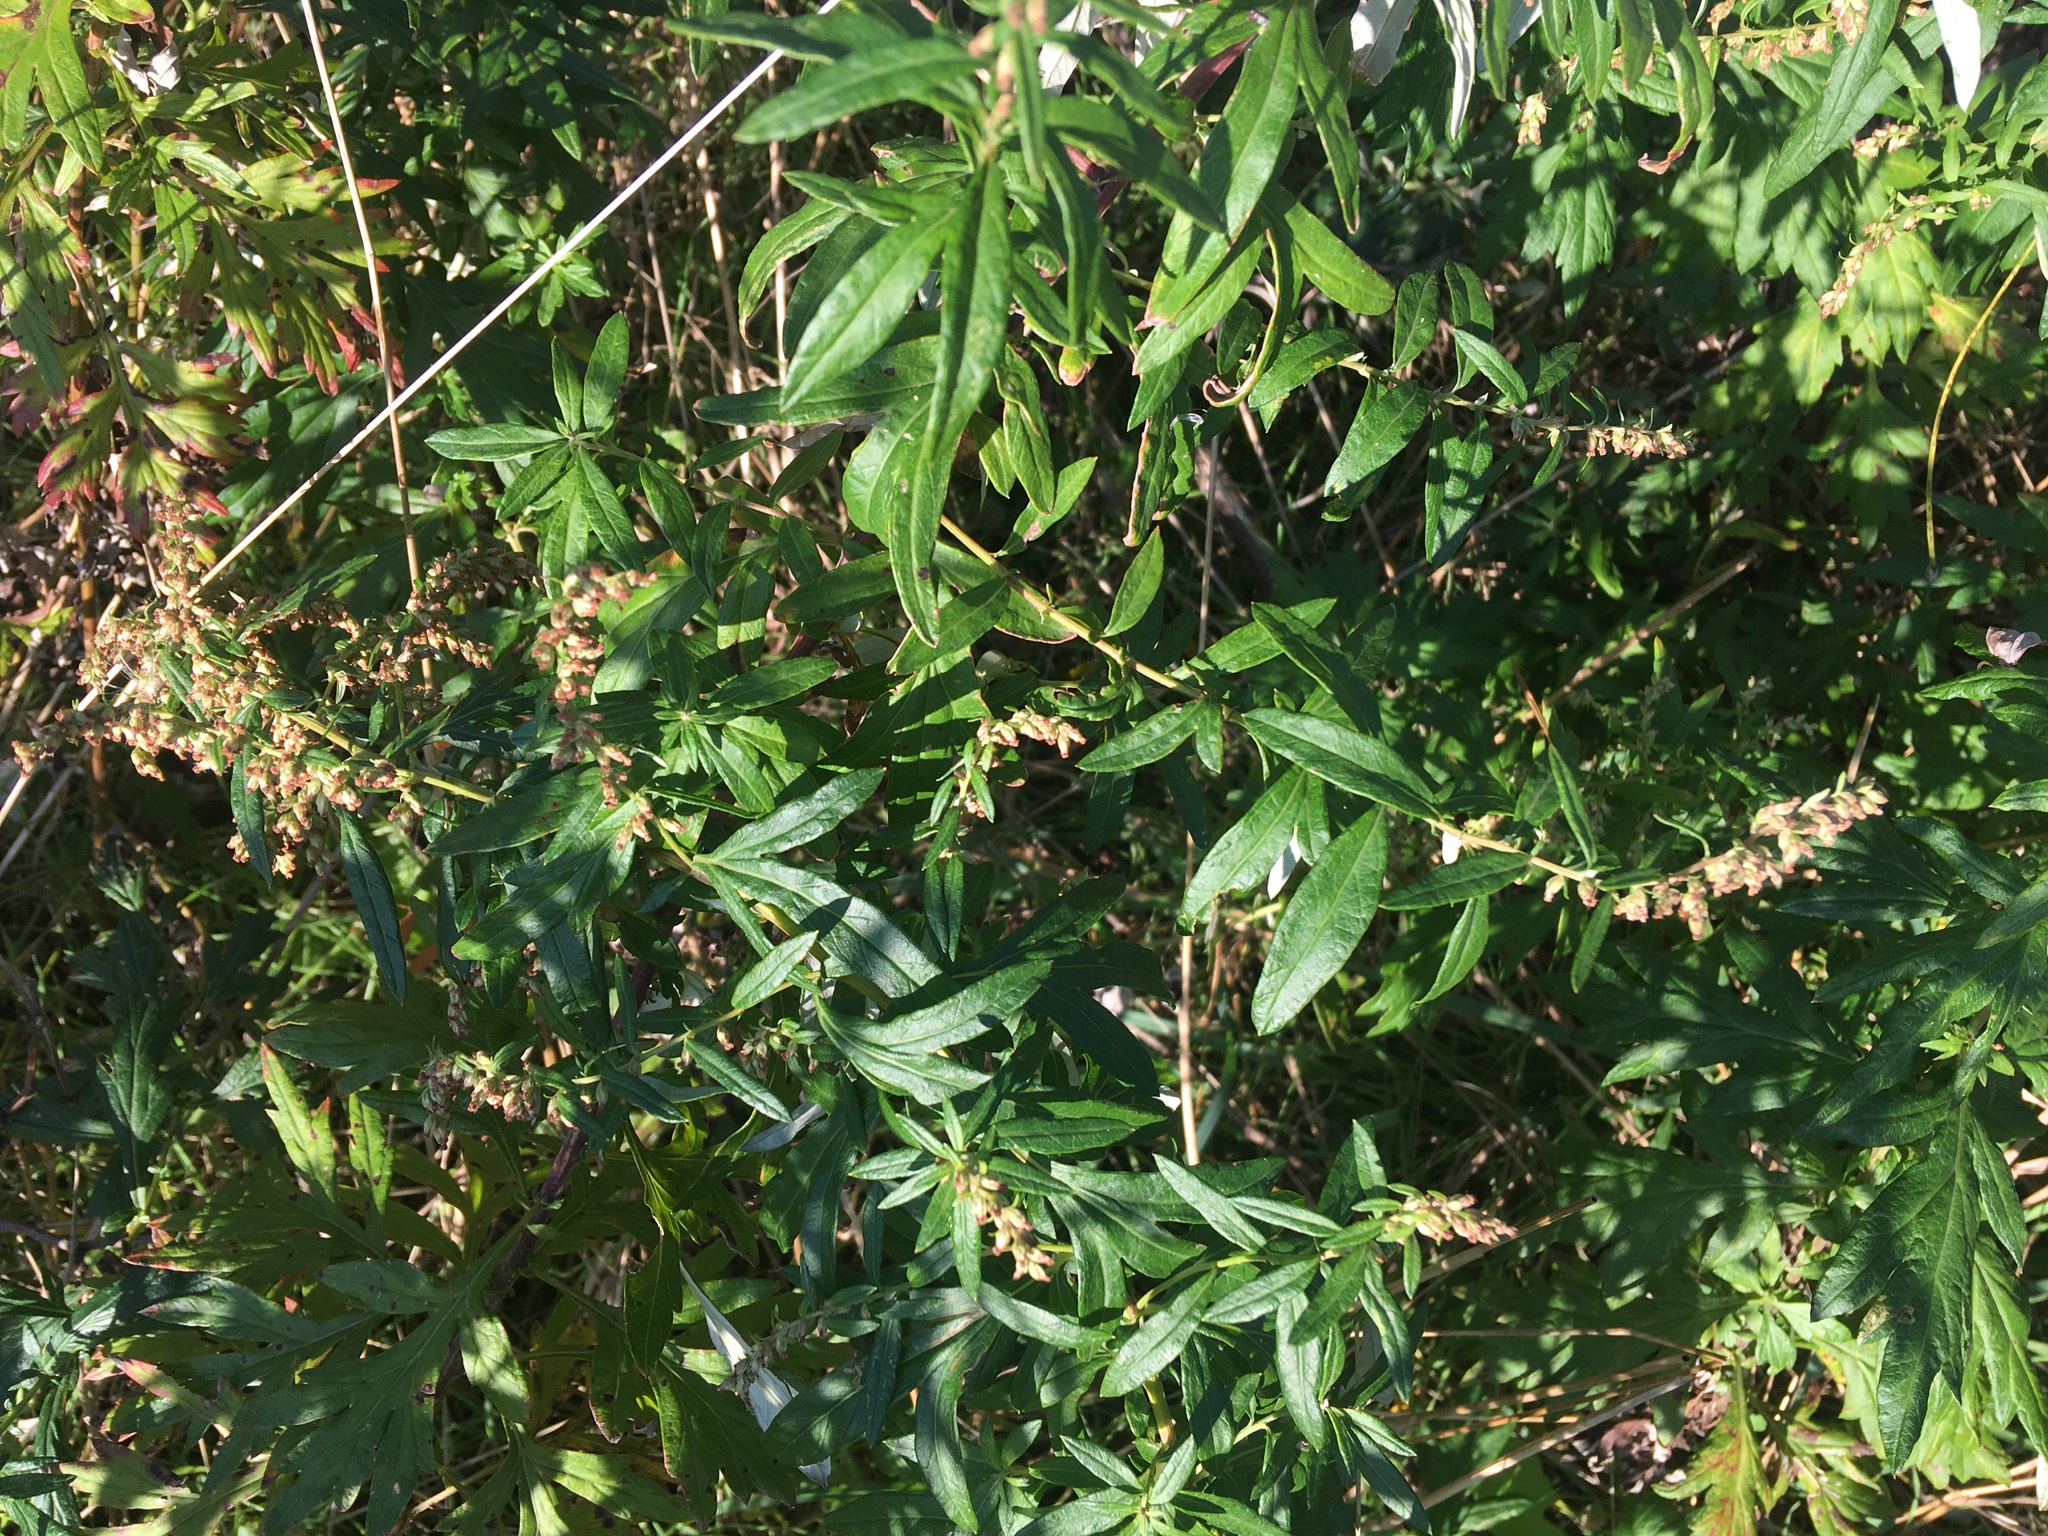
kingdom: Plantae
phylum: Tracheophyta
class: Magnoliopsida
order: Asterales
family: Asteraceae
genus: Artemisia
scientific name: Artemisia vulgaris
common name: Mugwort
